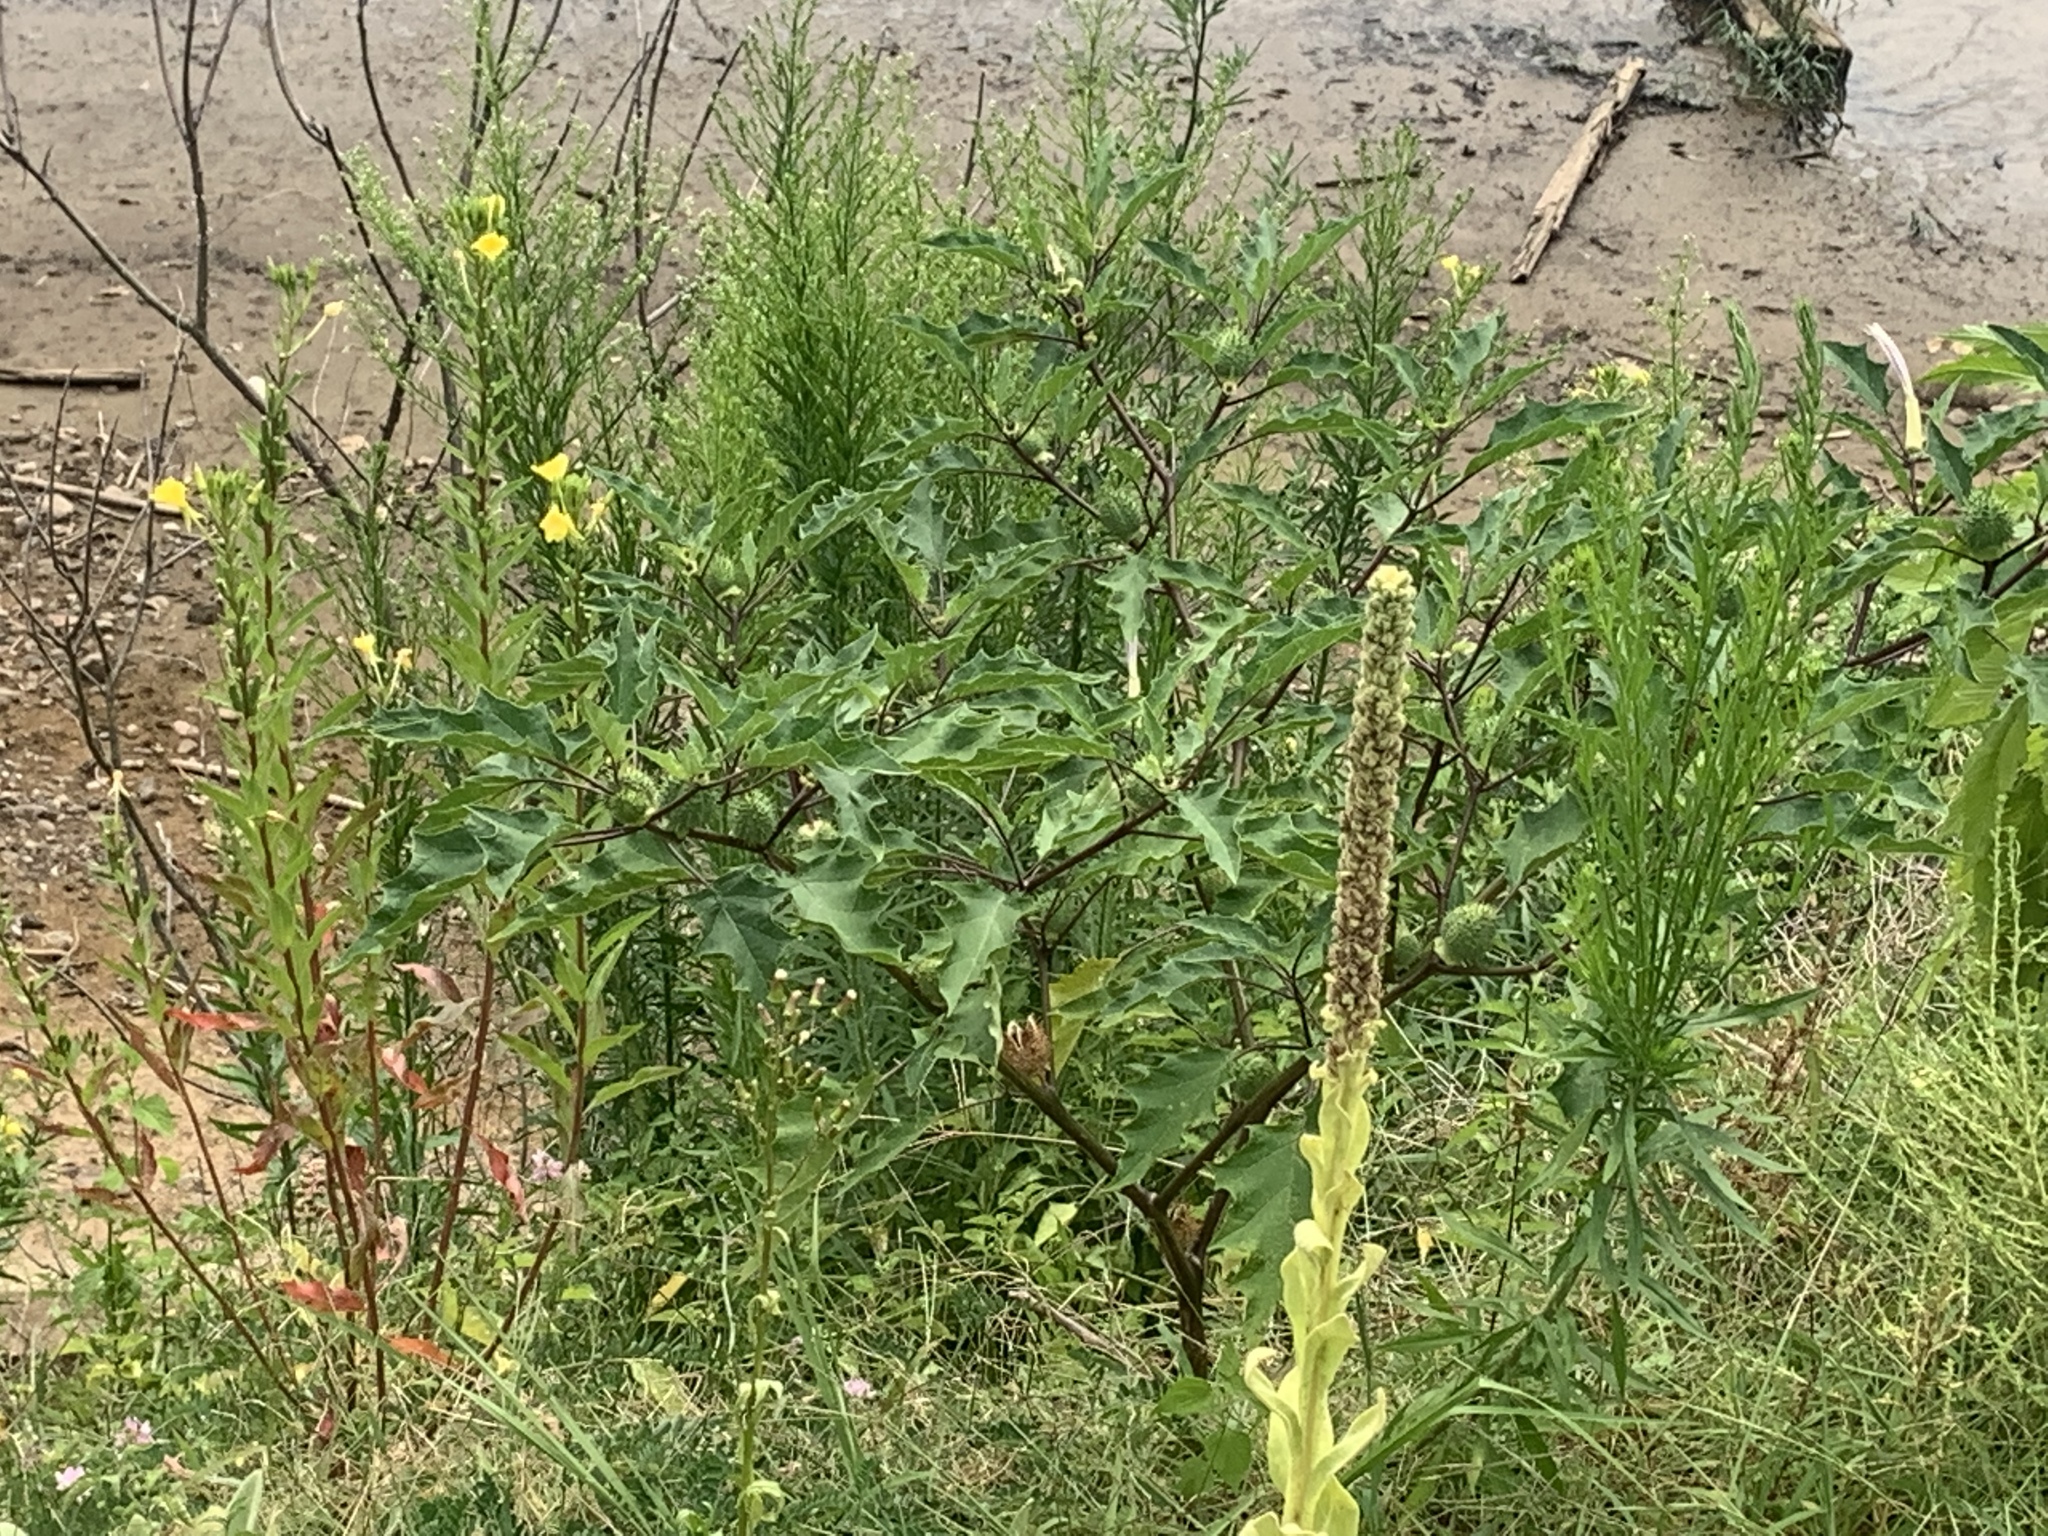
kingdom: Plantae
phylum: Tracheophyta
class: Magnoliopsida
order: Solanales
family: Solanaceae
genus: Datura
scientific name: Datura stramonium
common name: Thorn-apple
